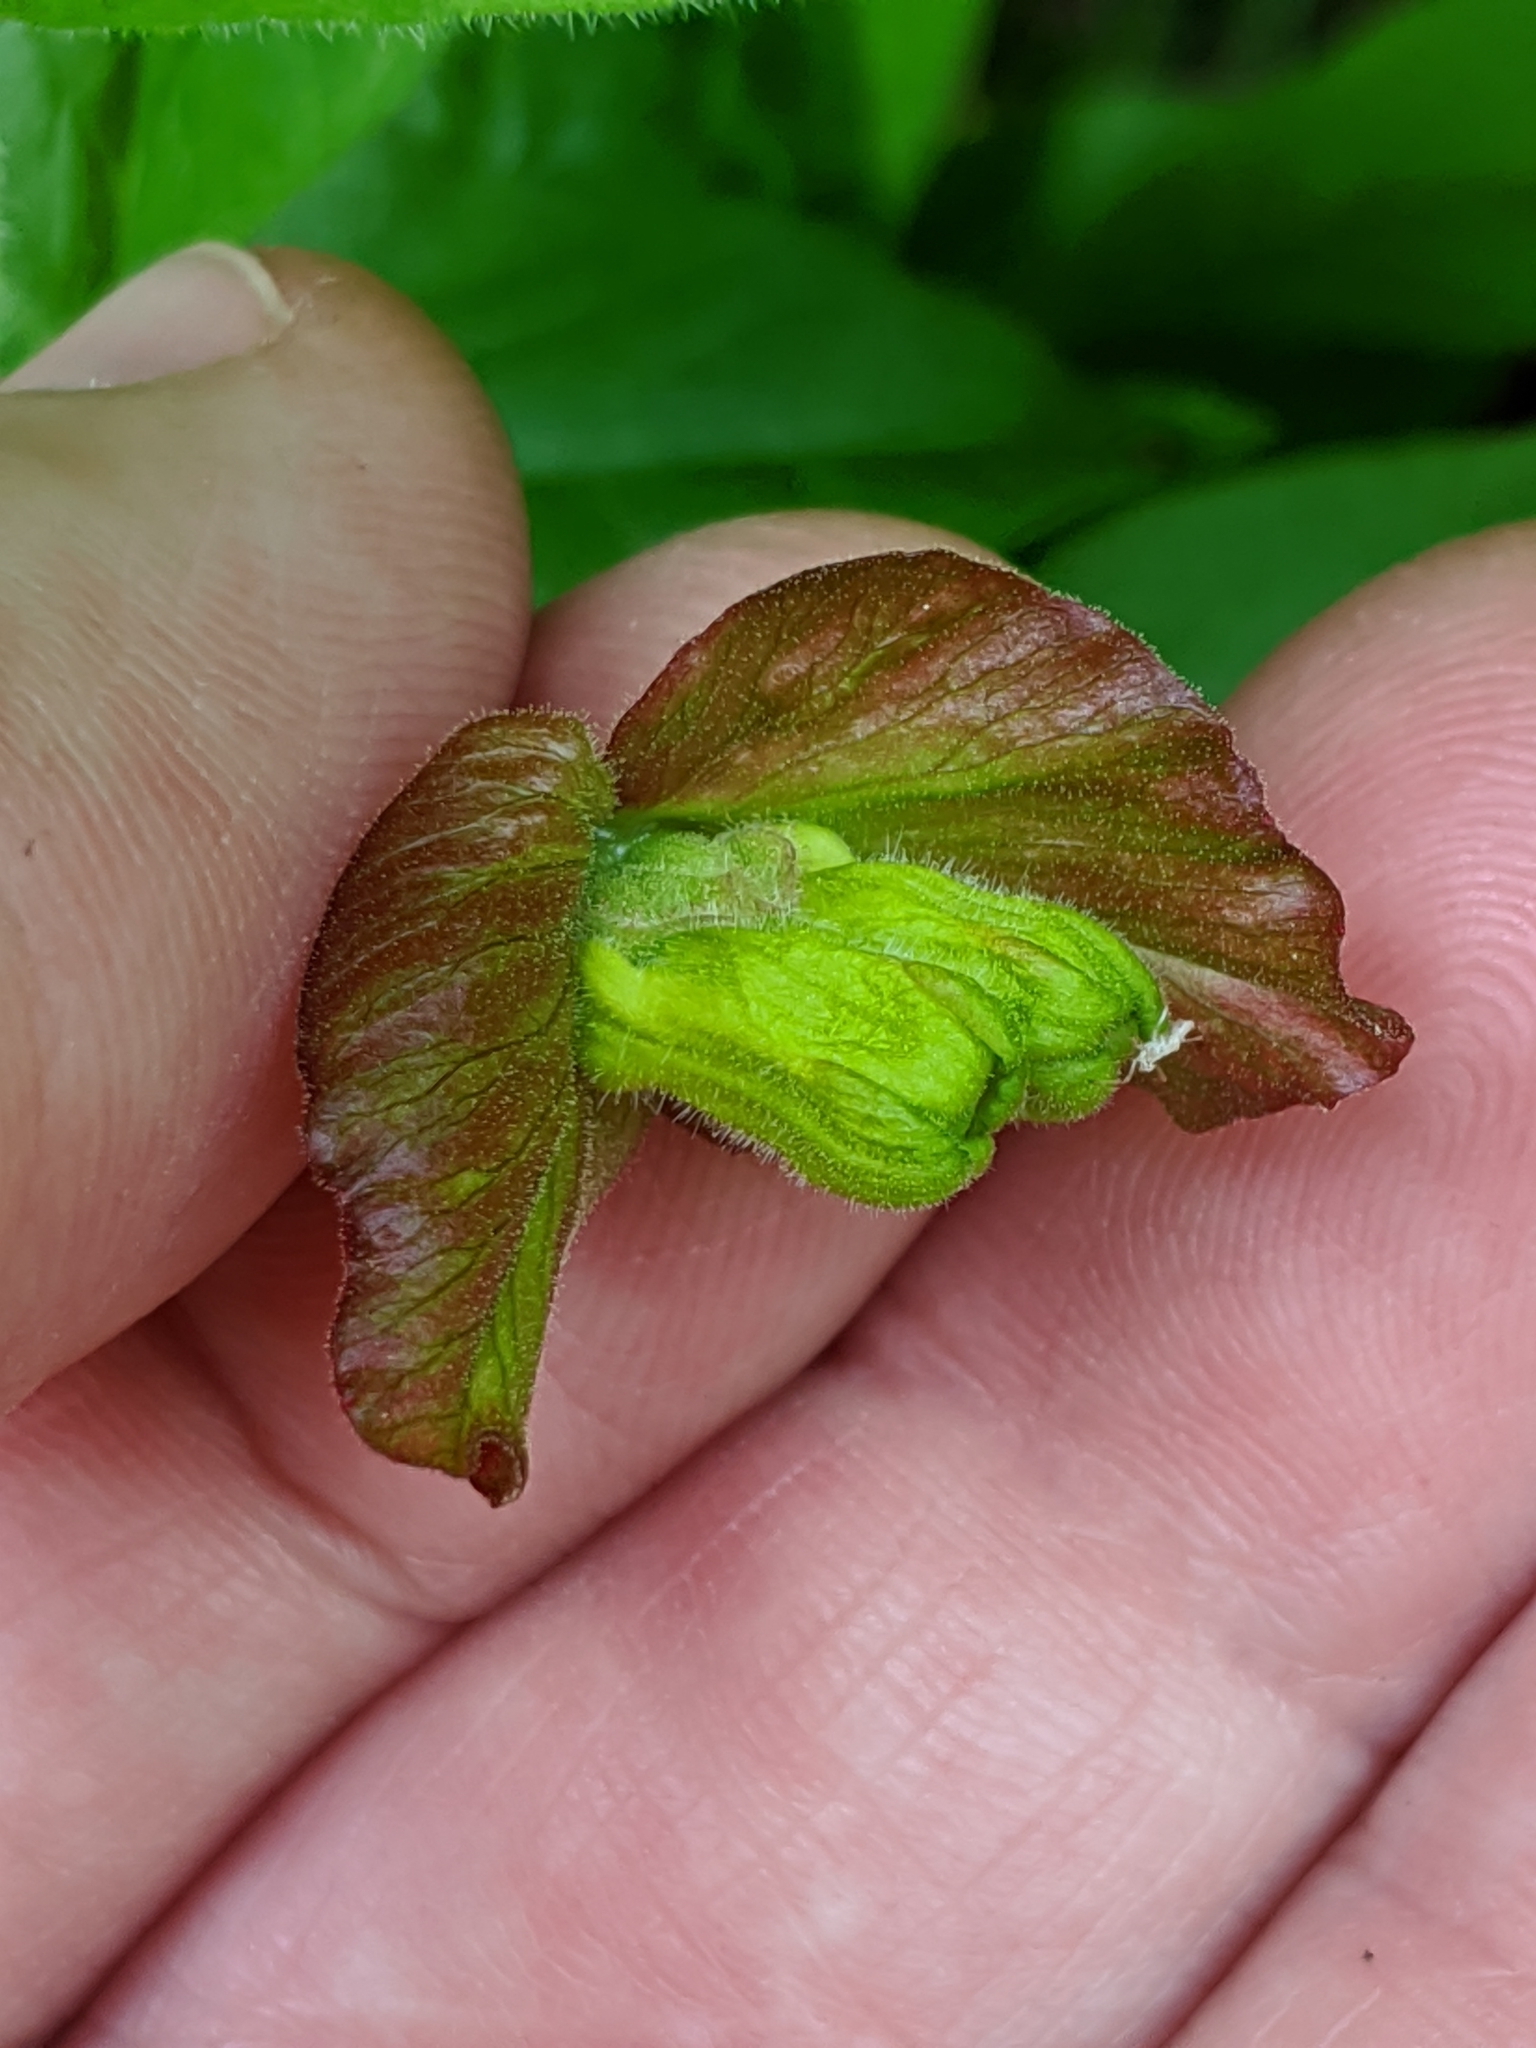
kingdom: Plantae
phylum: Tracheophyta
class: Magnoliopsida
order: Dipsacales
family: Caprifoliaceae
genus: Lonicera
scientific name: Lonicera involucrata
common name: Californian honeysuckle
